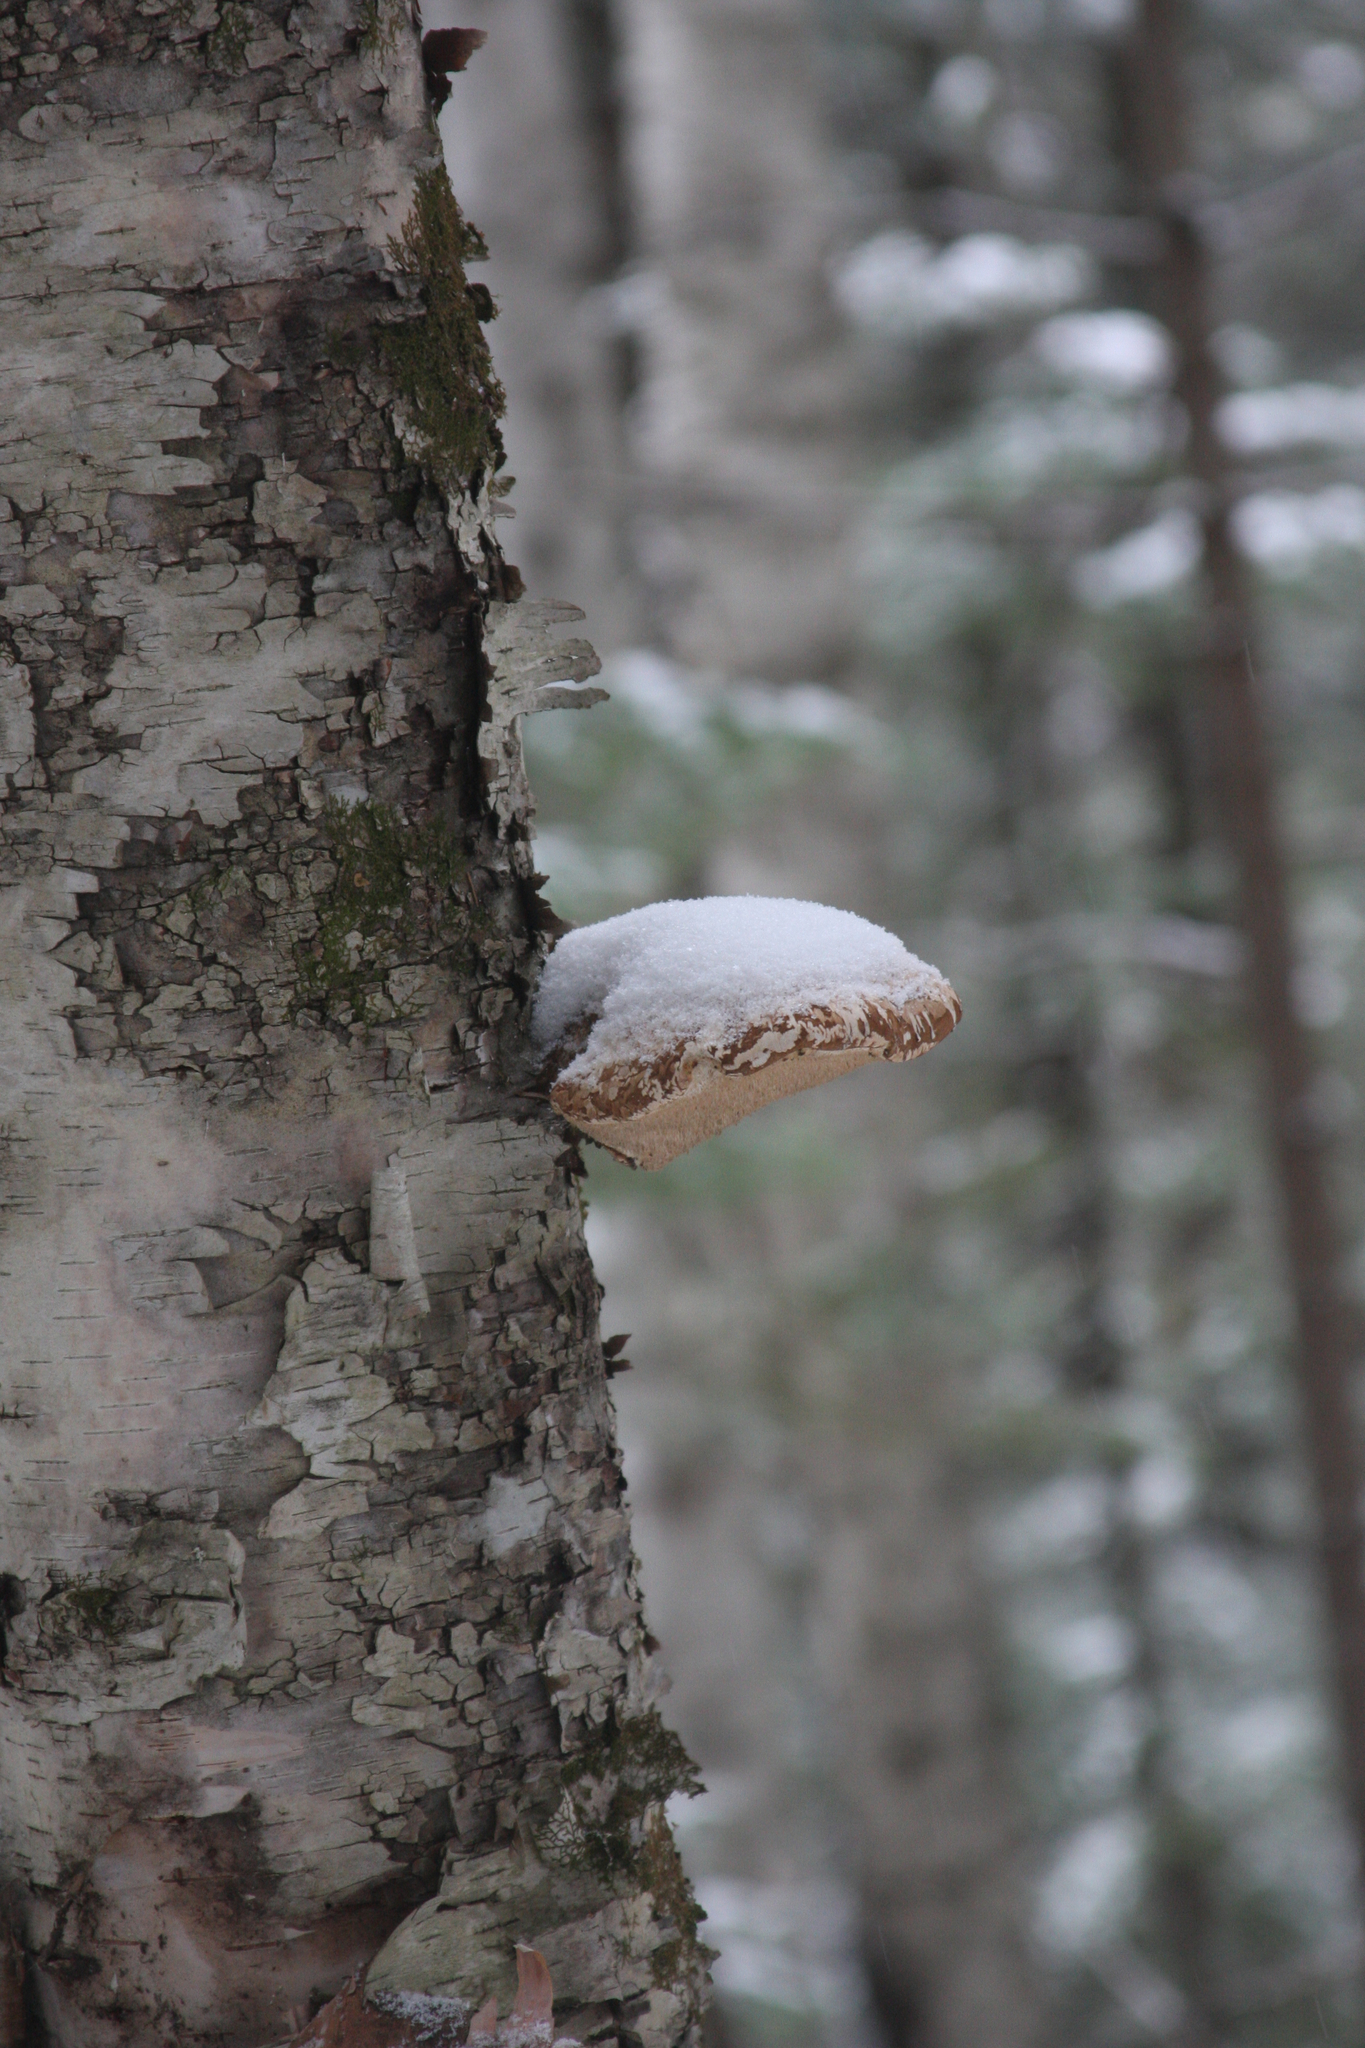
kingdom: Fungi
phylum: Basidiomycota
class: Agaricomycetes
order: Polyporales
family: Fomitopsidaceae
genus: Fomitopsis
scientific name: Fomitopsis betulina
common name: Birch polypore
